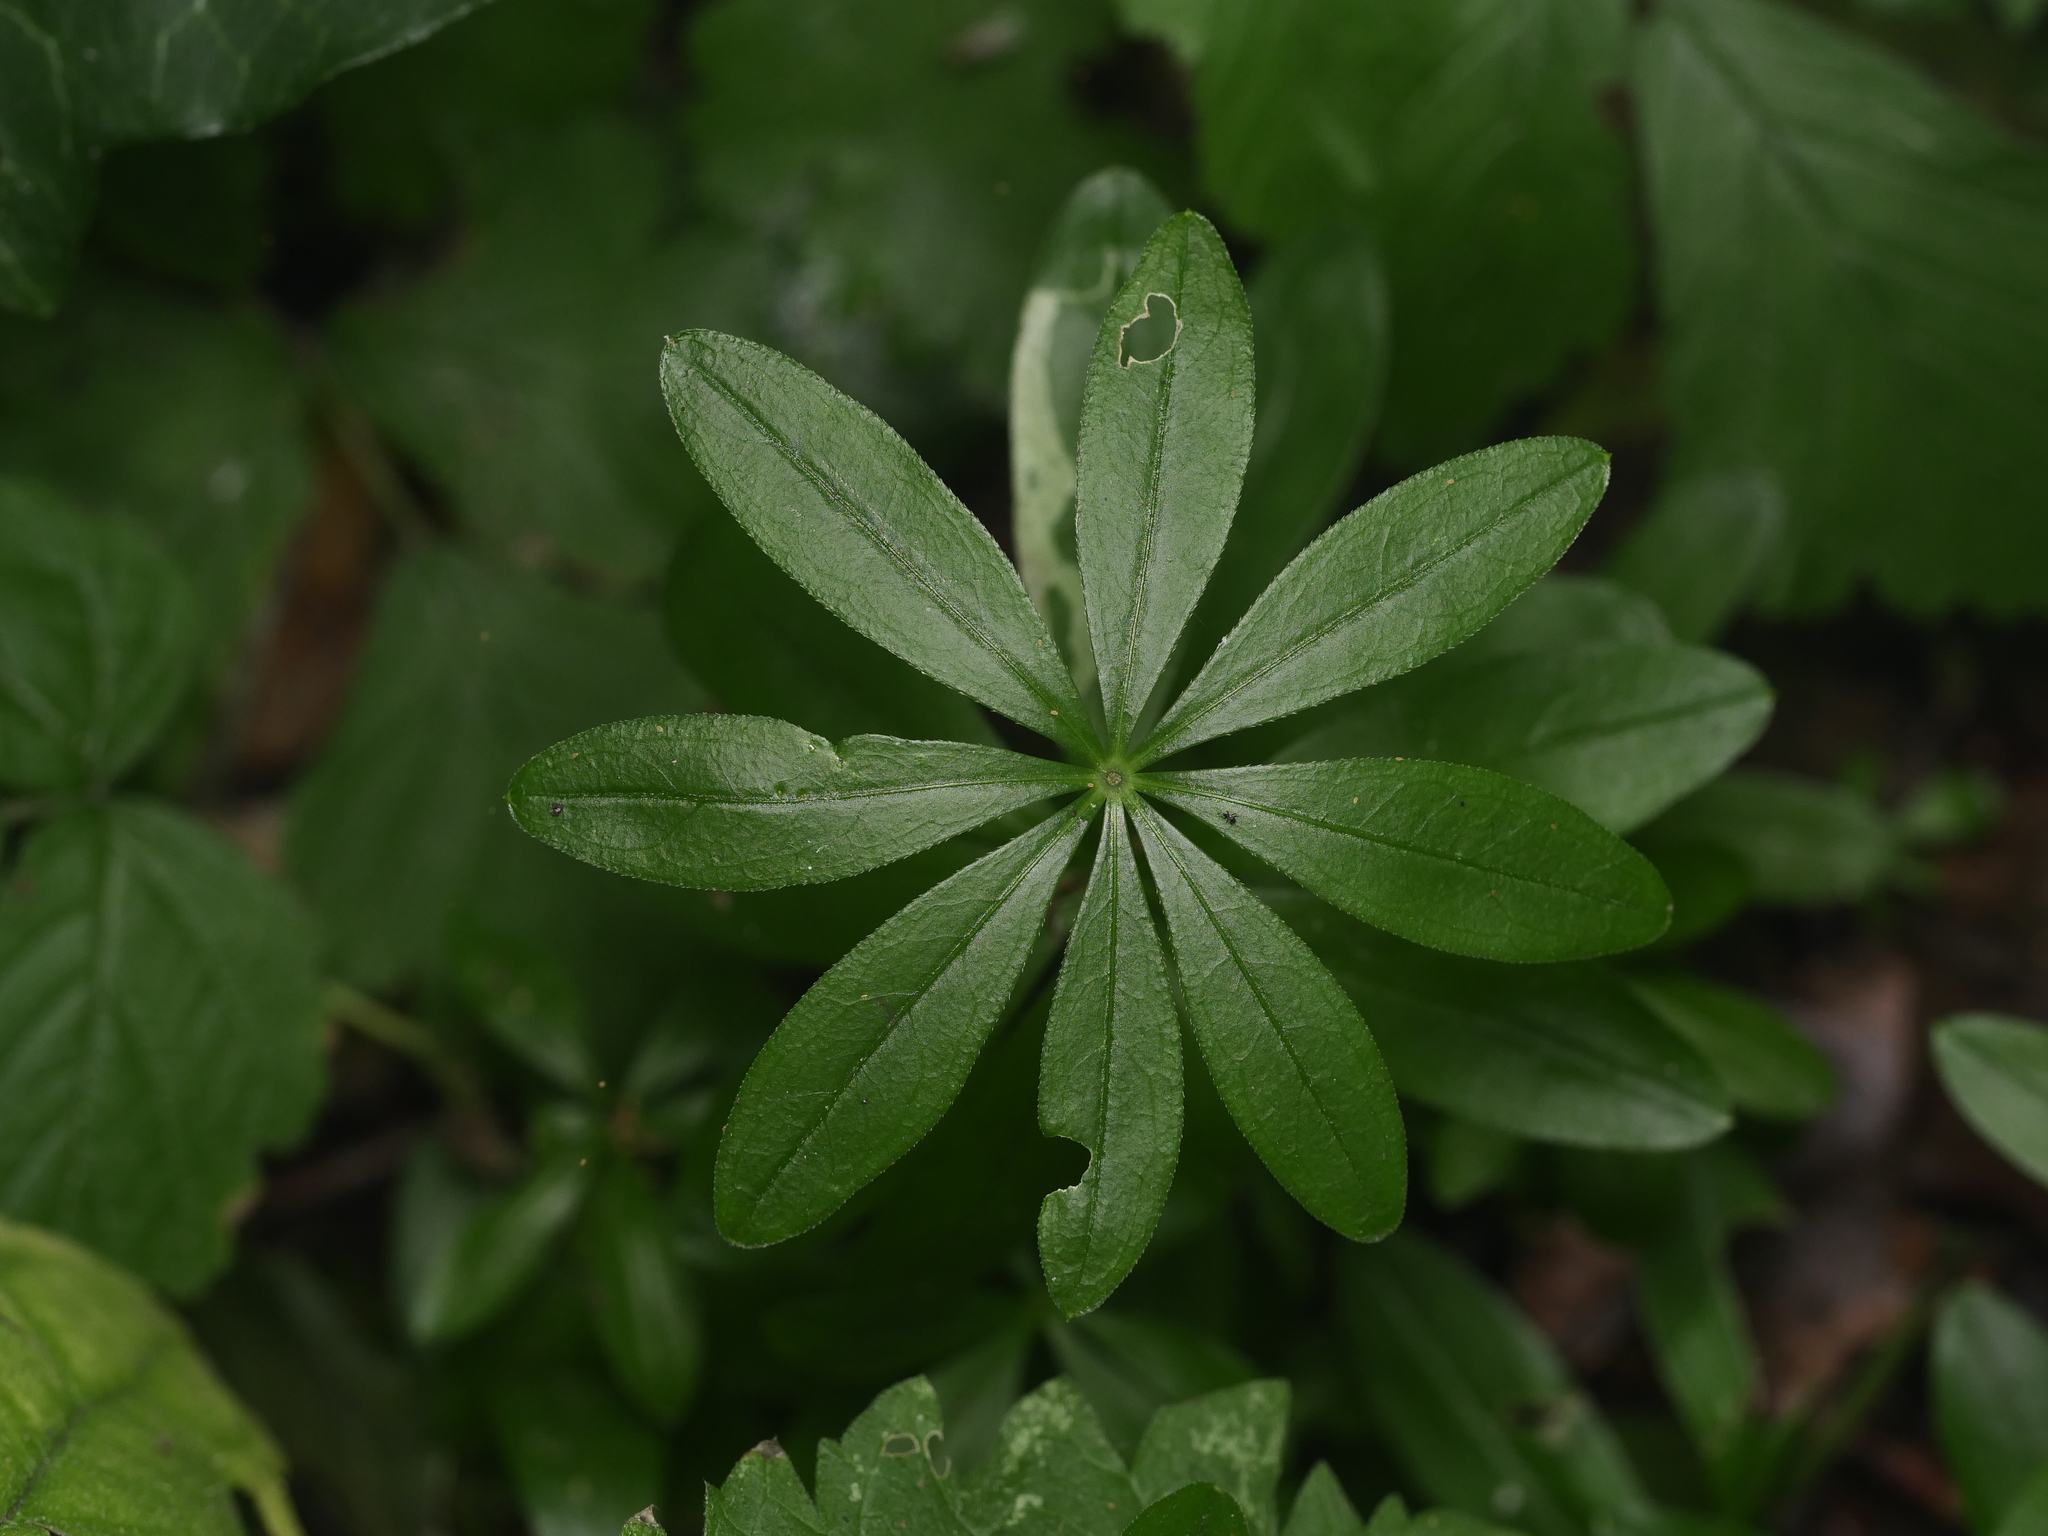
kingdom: Plantae
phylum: Tracheophyta
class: Magnoliopsida
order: Gentianales
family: Rubiaceae
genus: Galium
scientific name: Galium odoratum
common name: Sweet woodruff
